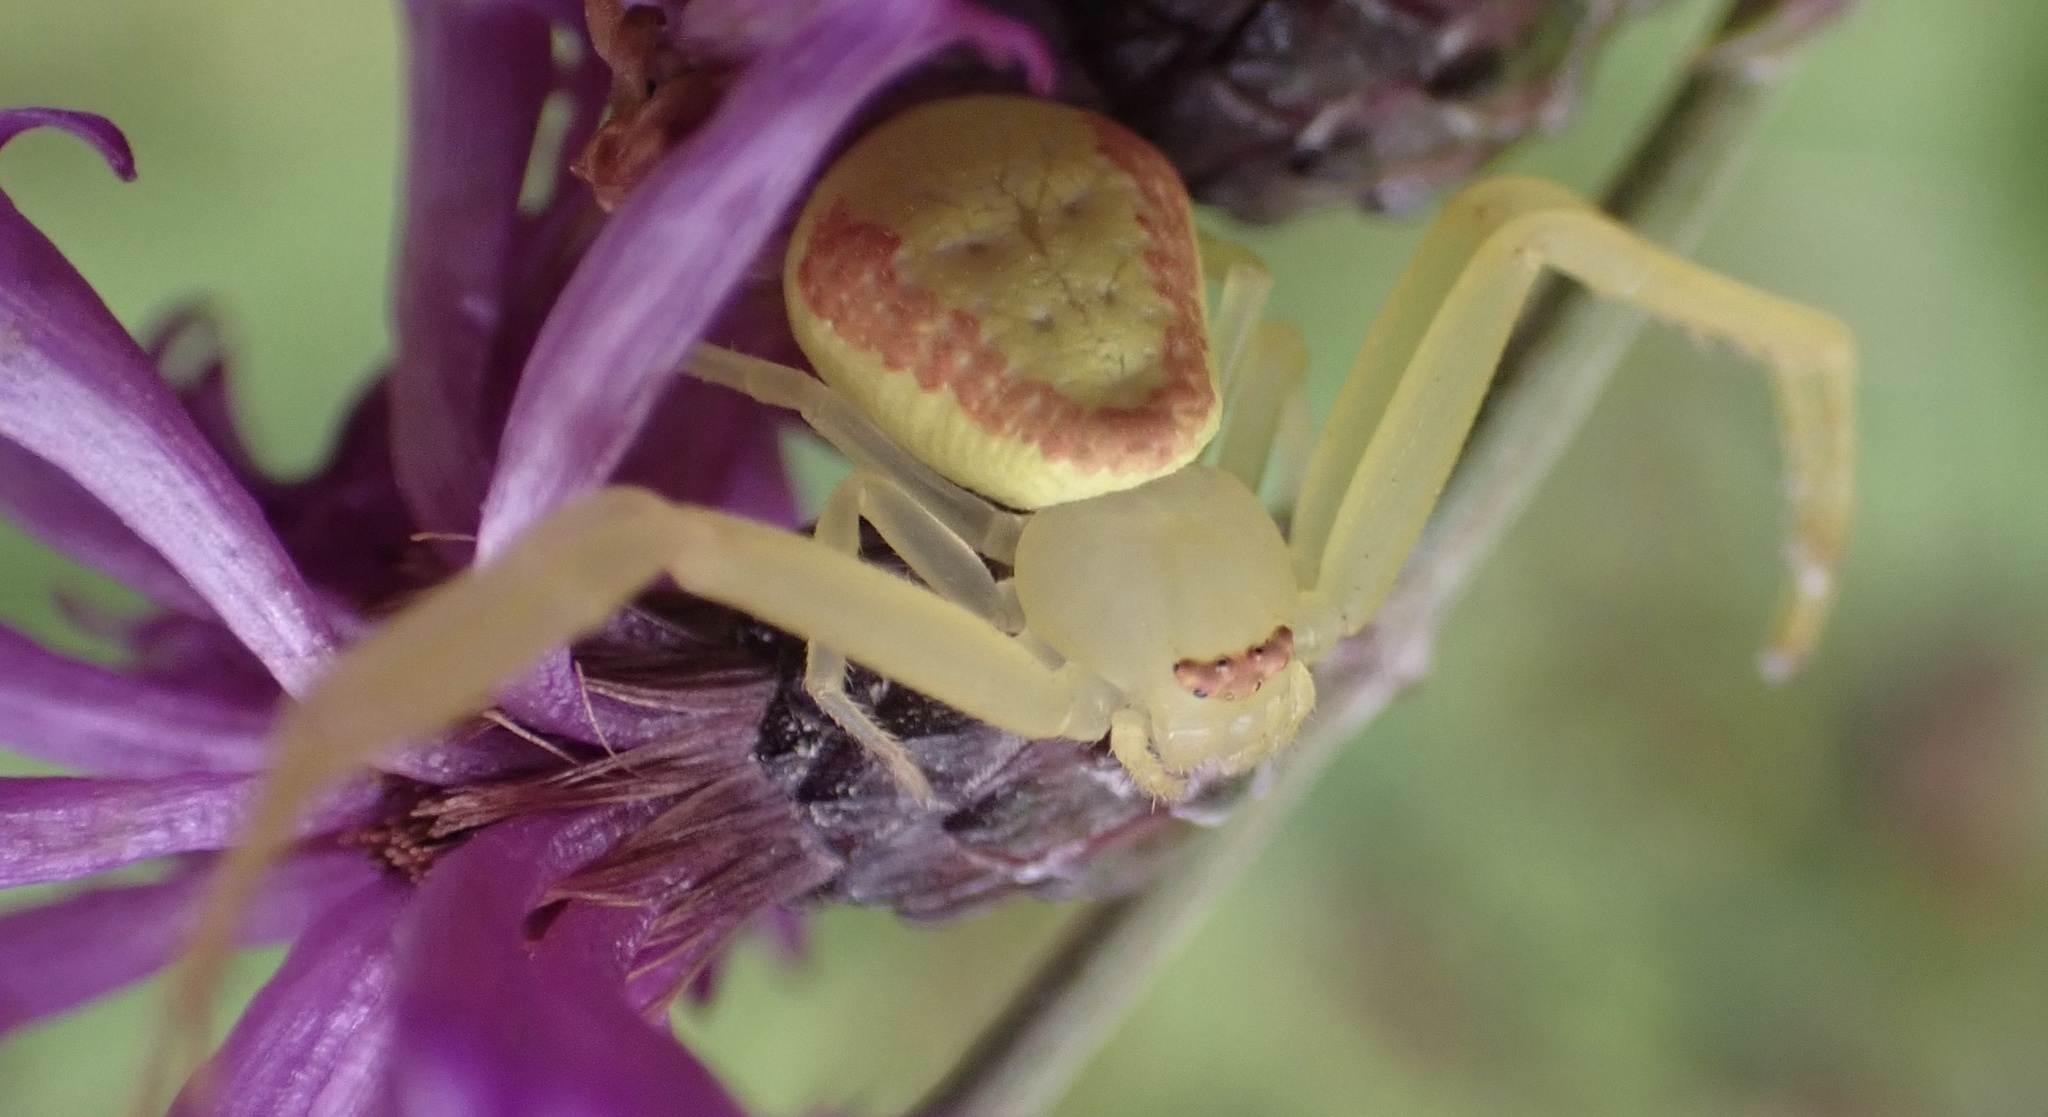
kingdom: Animalia
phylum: Arthropoda
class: Arachnida
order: Araneae
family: Thomisidae
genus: Misumessus
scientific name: Misumessus oblongus
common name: American green crab spider
